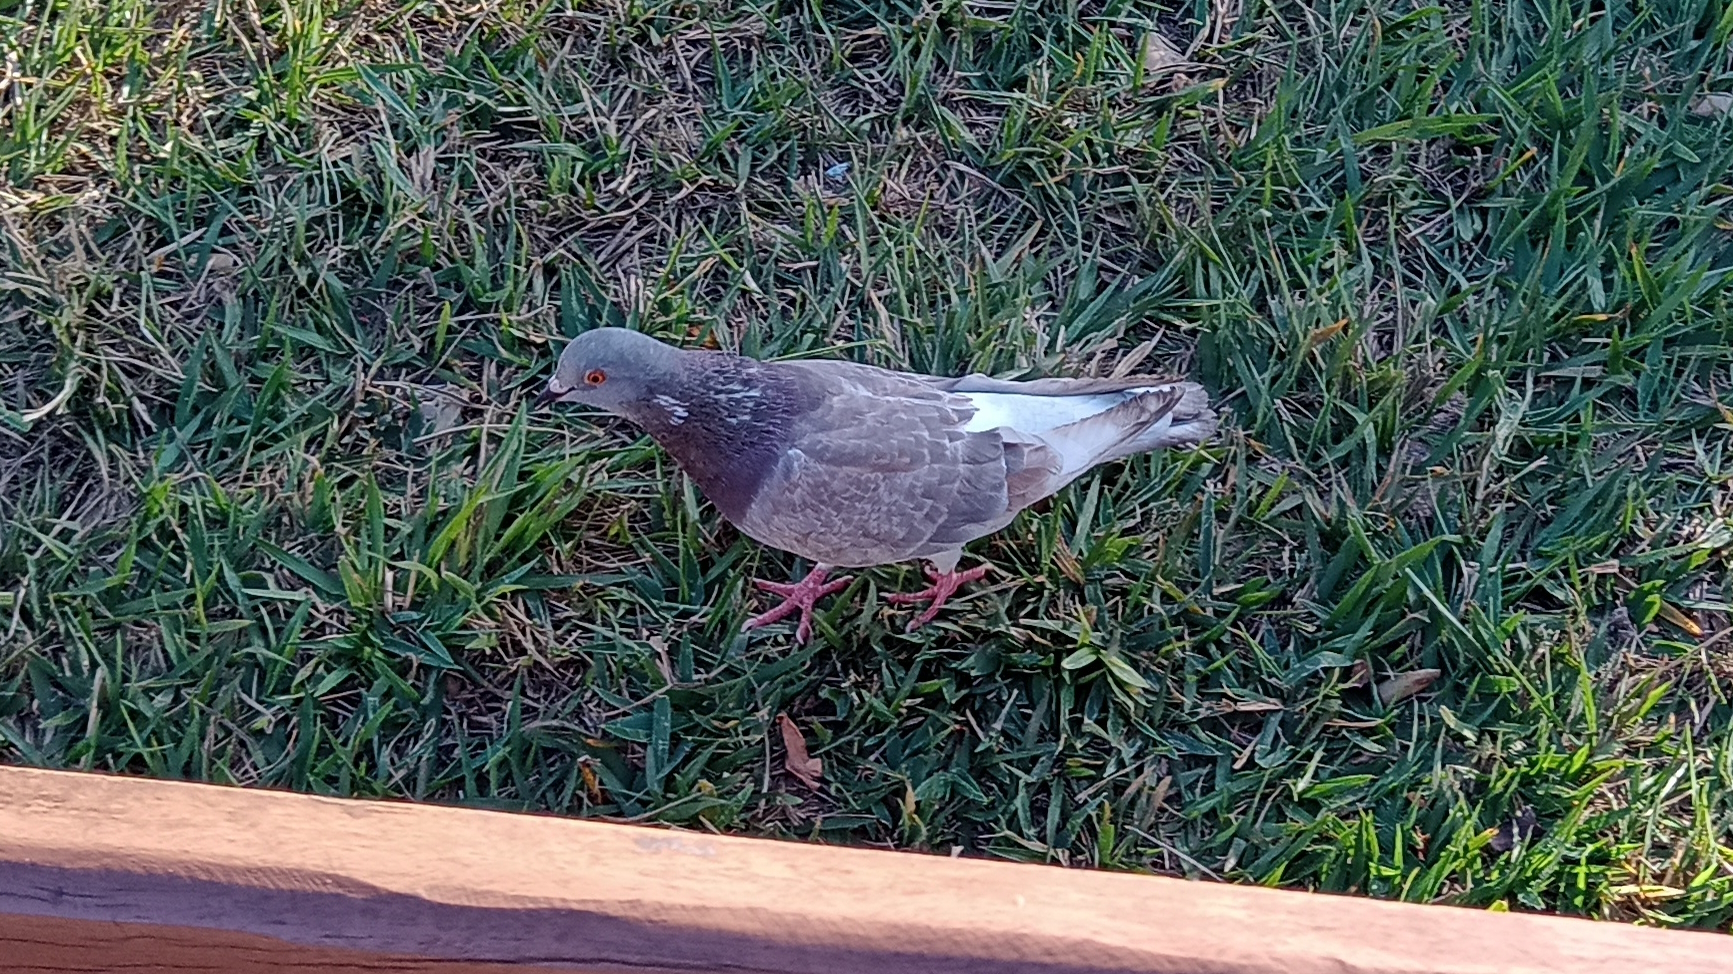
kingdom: Animalia
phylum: Chordata
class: Aves
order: Columbiformes
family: Columbidae
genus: Columba
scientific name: Columba livia
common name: Rock pigeon
